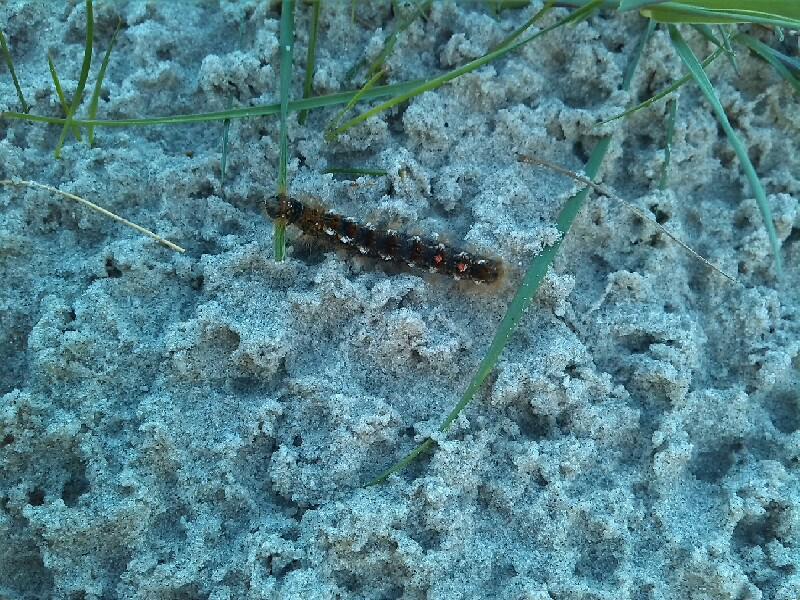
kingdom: Animalia
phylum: Arthropoda
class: Insecta
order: Lepidoptera
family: Erebidae
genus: Euproctis
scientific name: Euproctis chrysorrhoea
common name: Brown-tail
